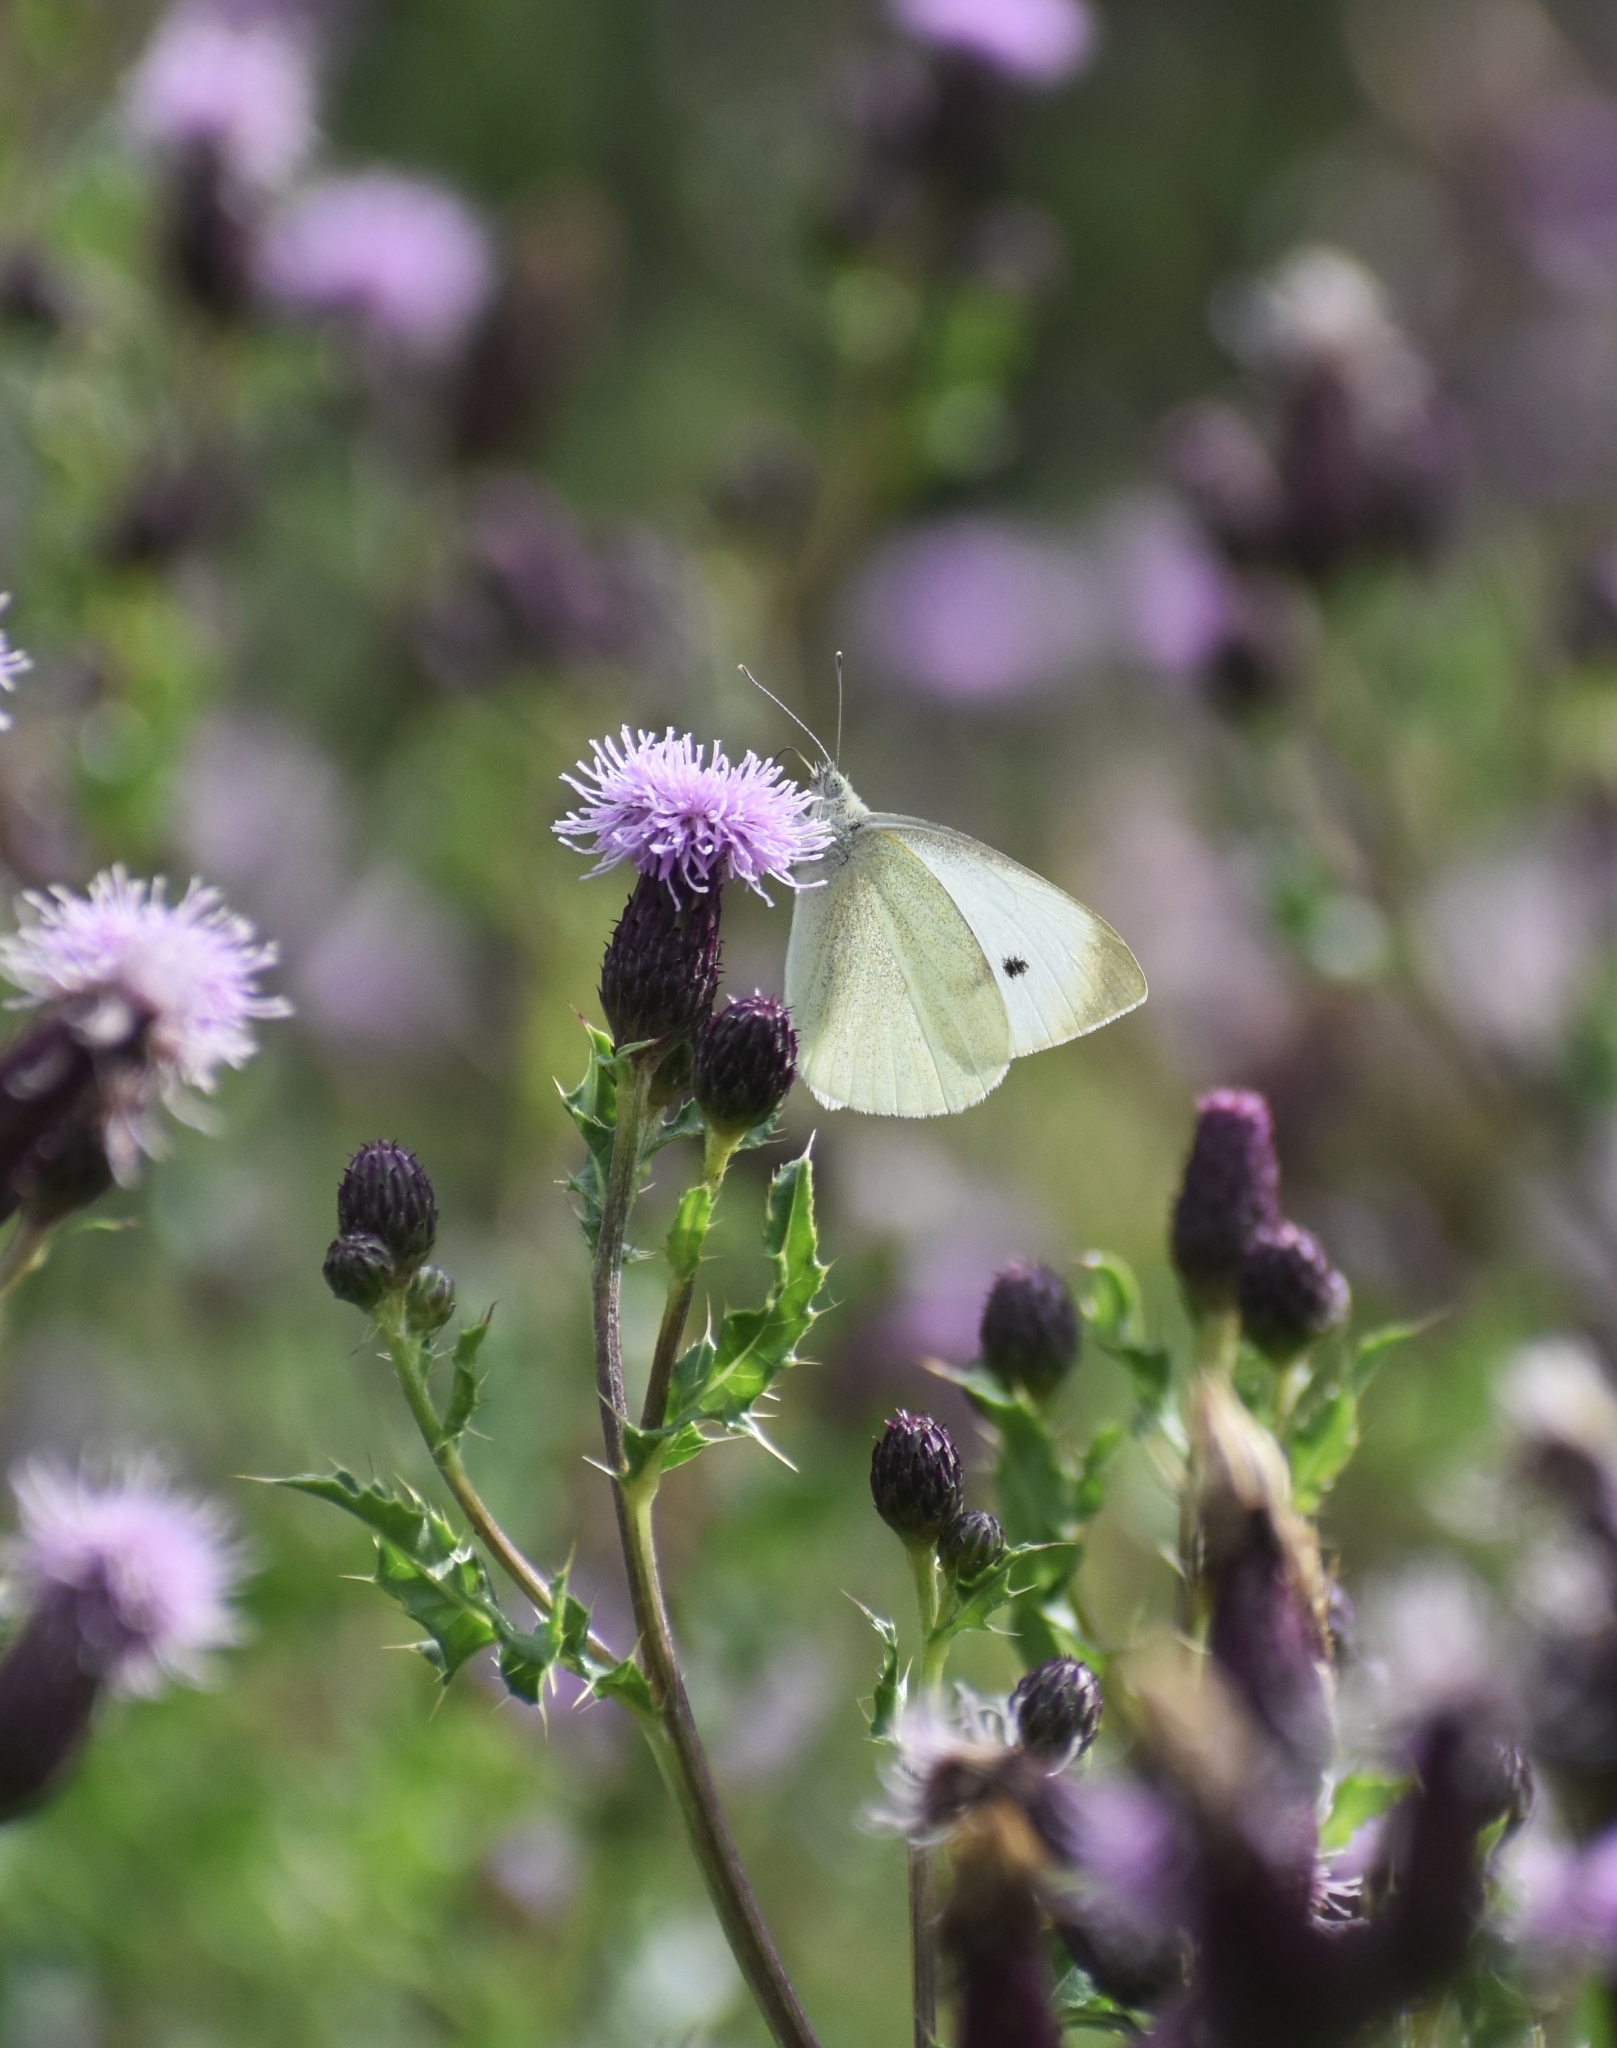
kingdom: Animalia
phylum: Arthropoda
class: Insecta
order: Lepidoptera
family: Pieridae
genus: Pieris
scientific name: Pieris rapae
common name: Small white
